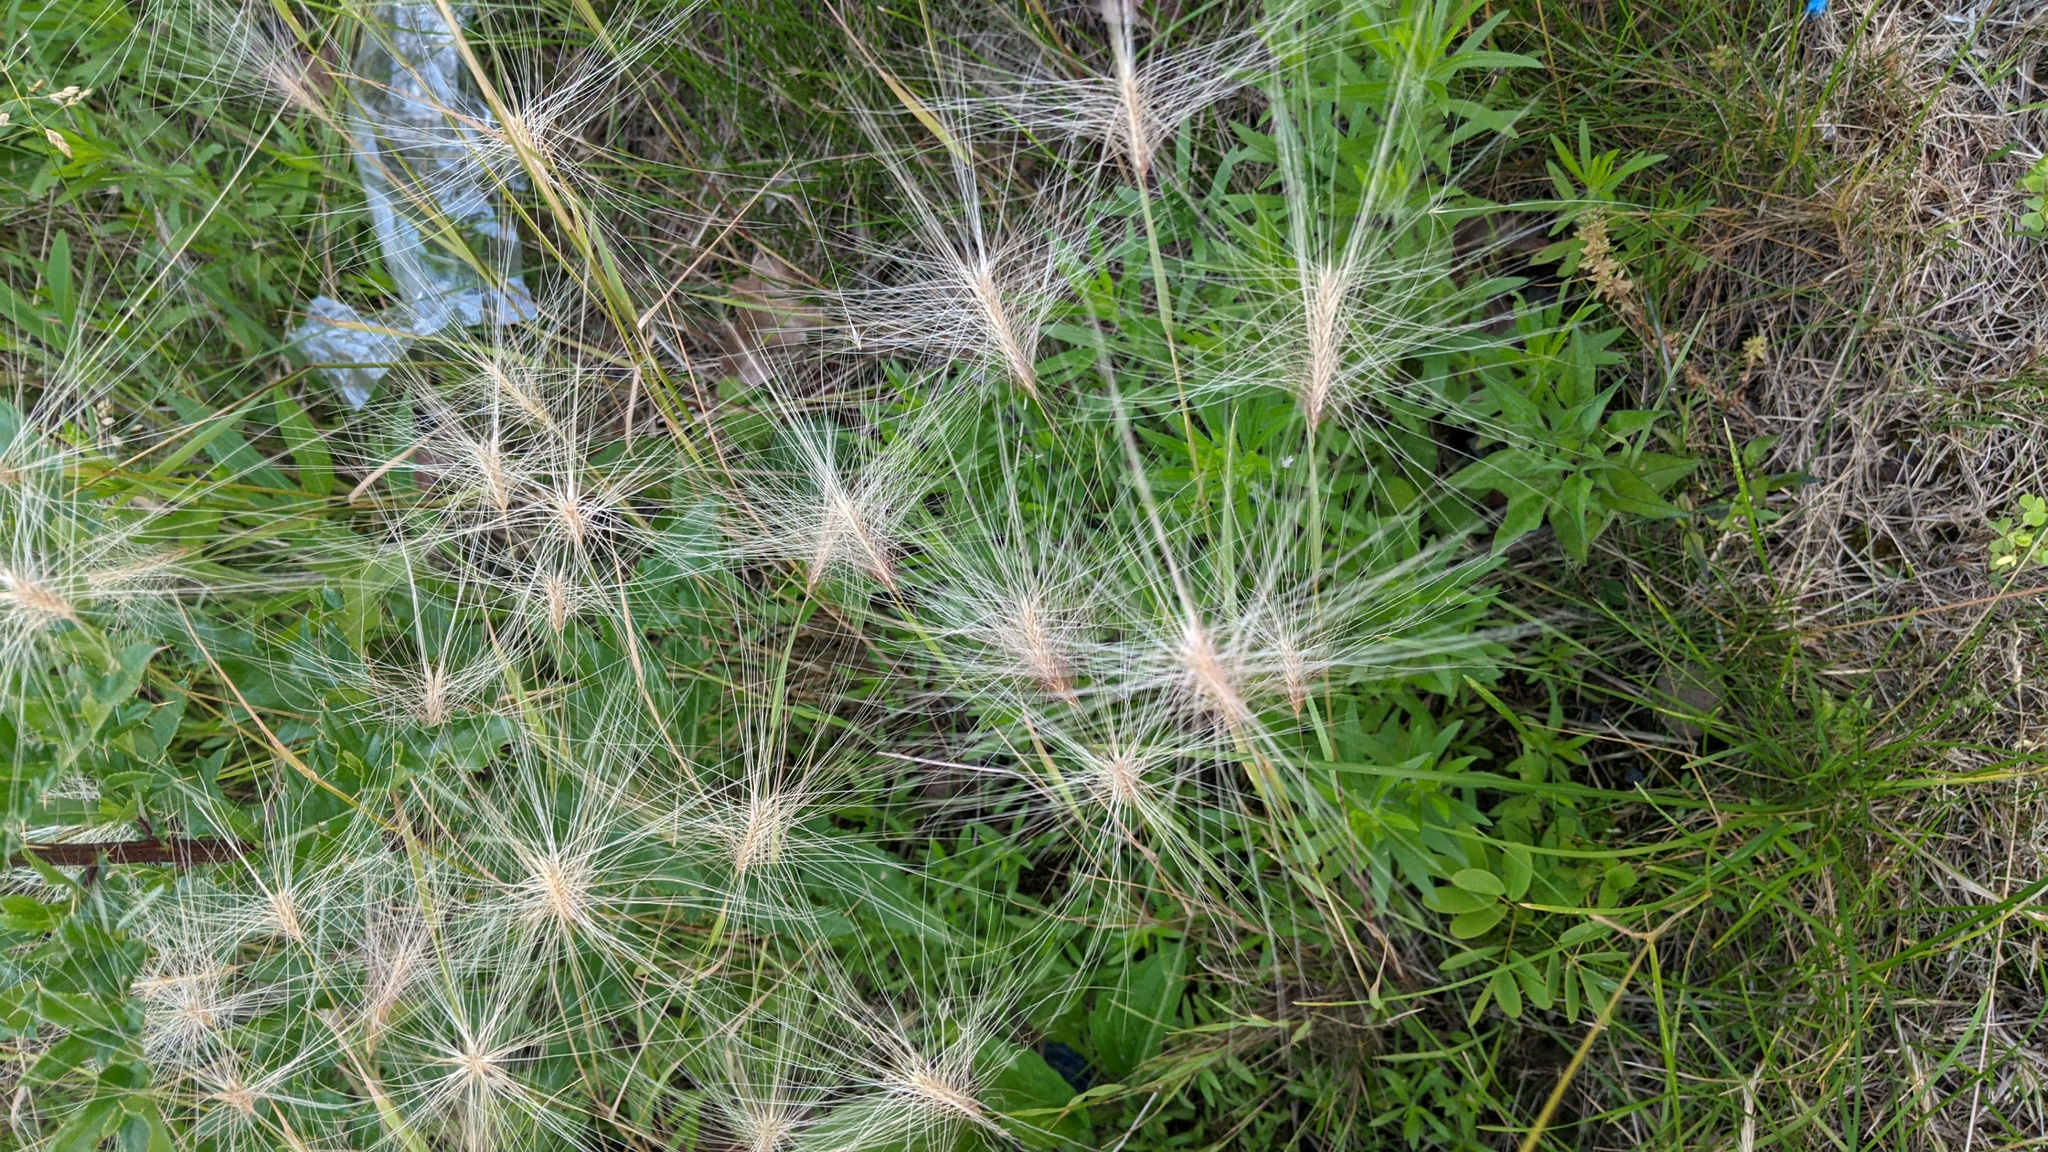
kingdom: Plantae
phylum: Tracheophyta
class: Liliopsida
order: Poales
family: Poaceae
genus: Hordeum
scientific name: Hordeum jubatum
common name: Foxtail barley
